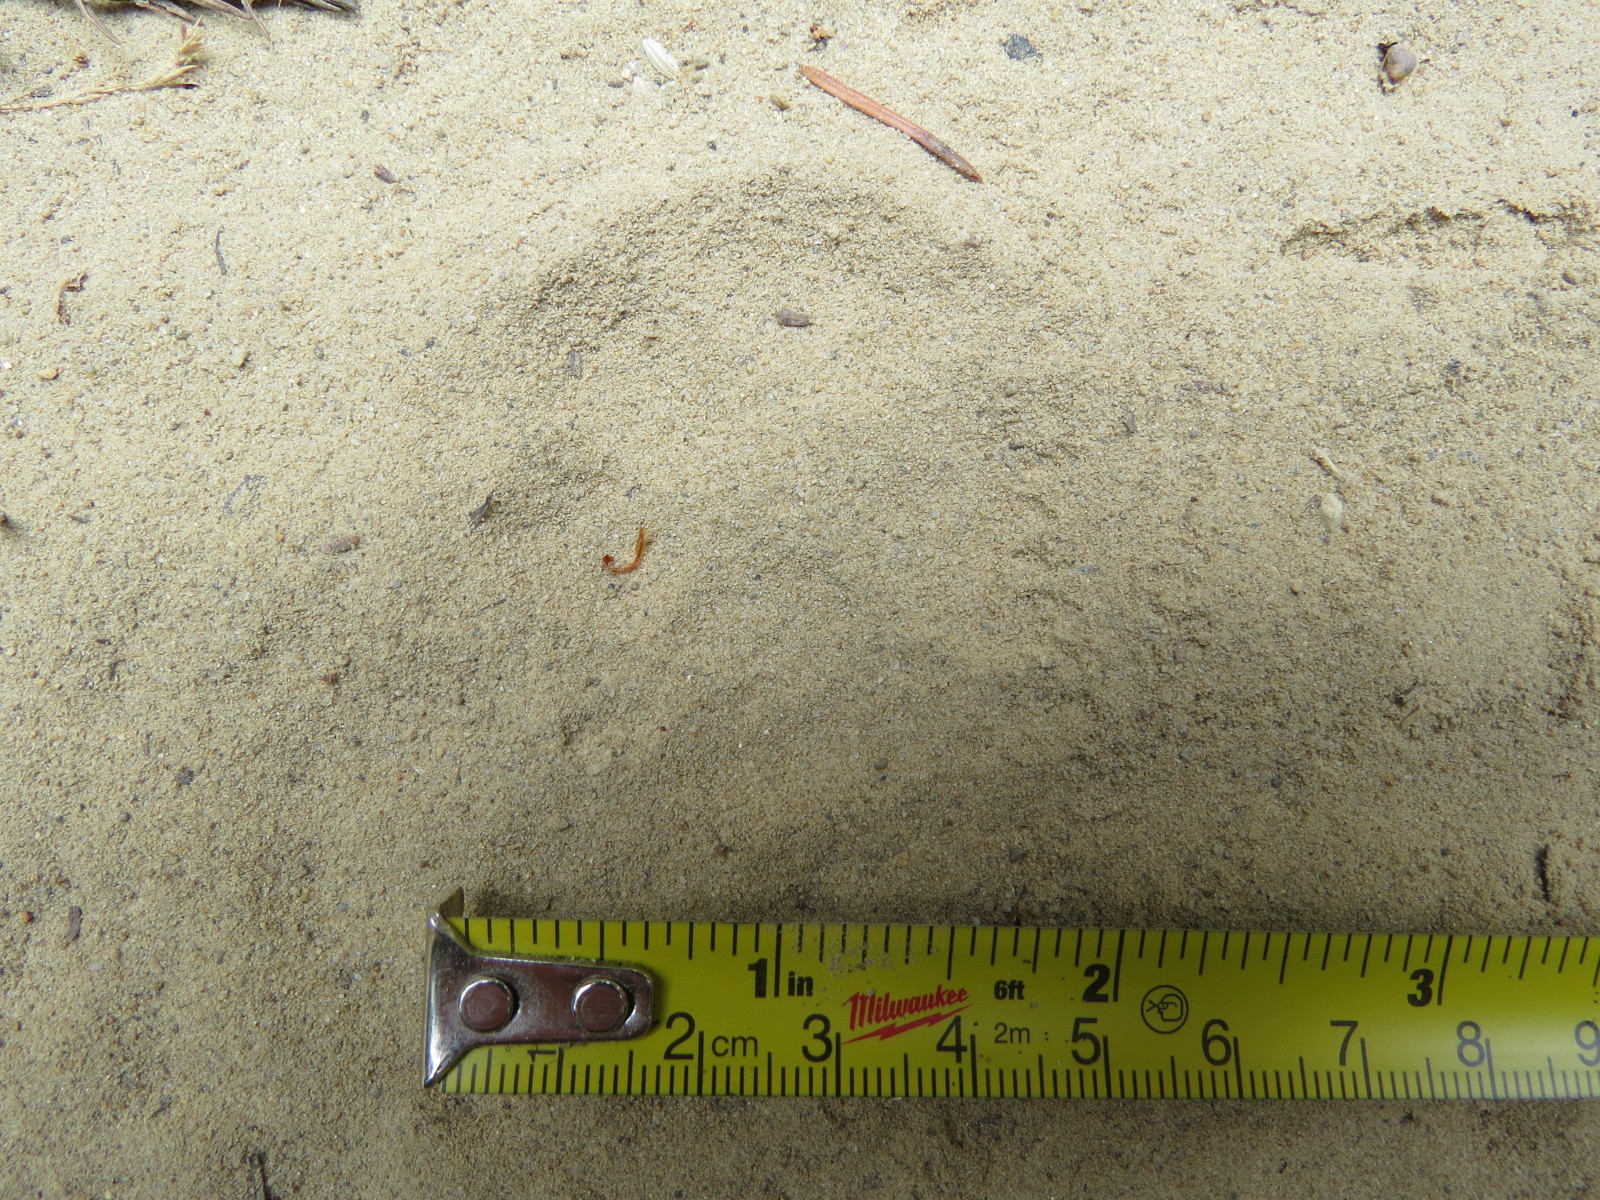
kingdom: Animalia
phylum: Chordata
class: Mammalia
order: Carnivora
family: Canidae
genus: Urocyon
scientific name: Urocyon cinereoargenteus
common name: Gray fox
